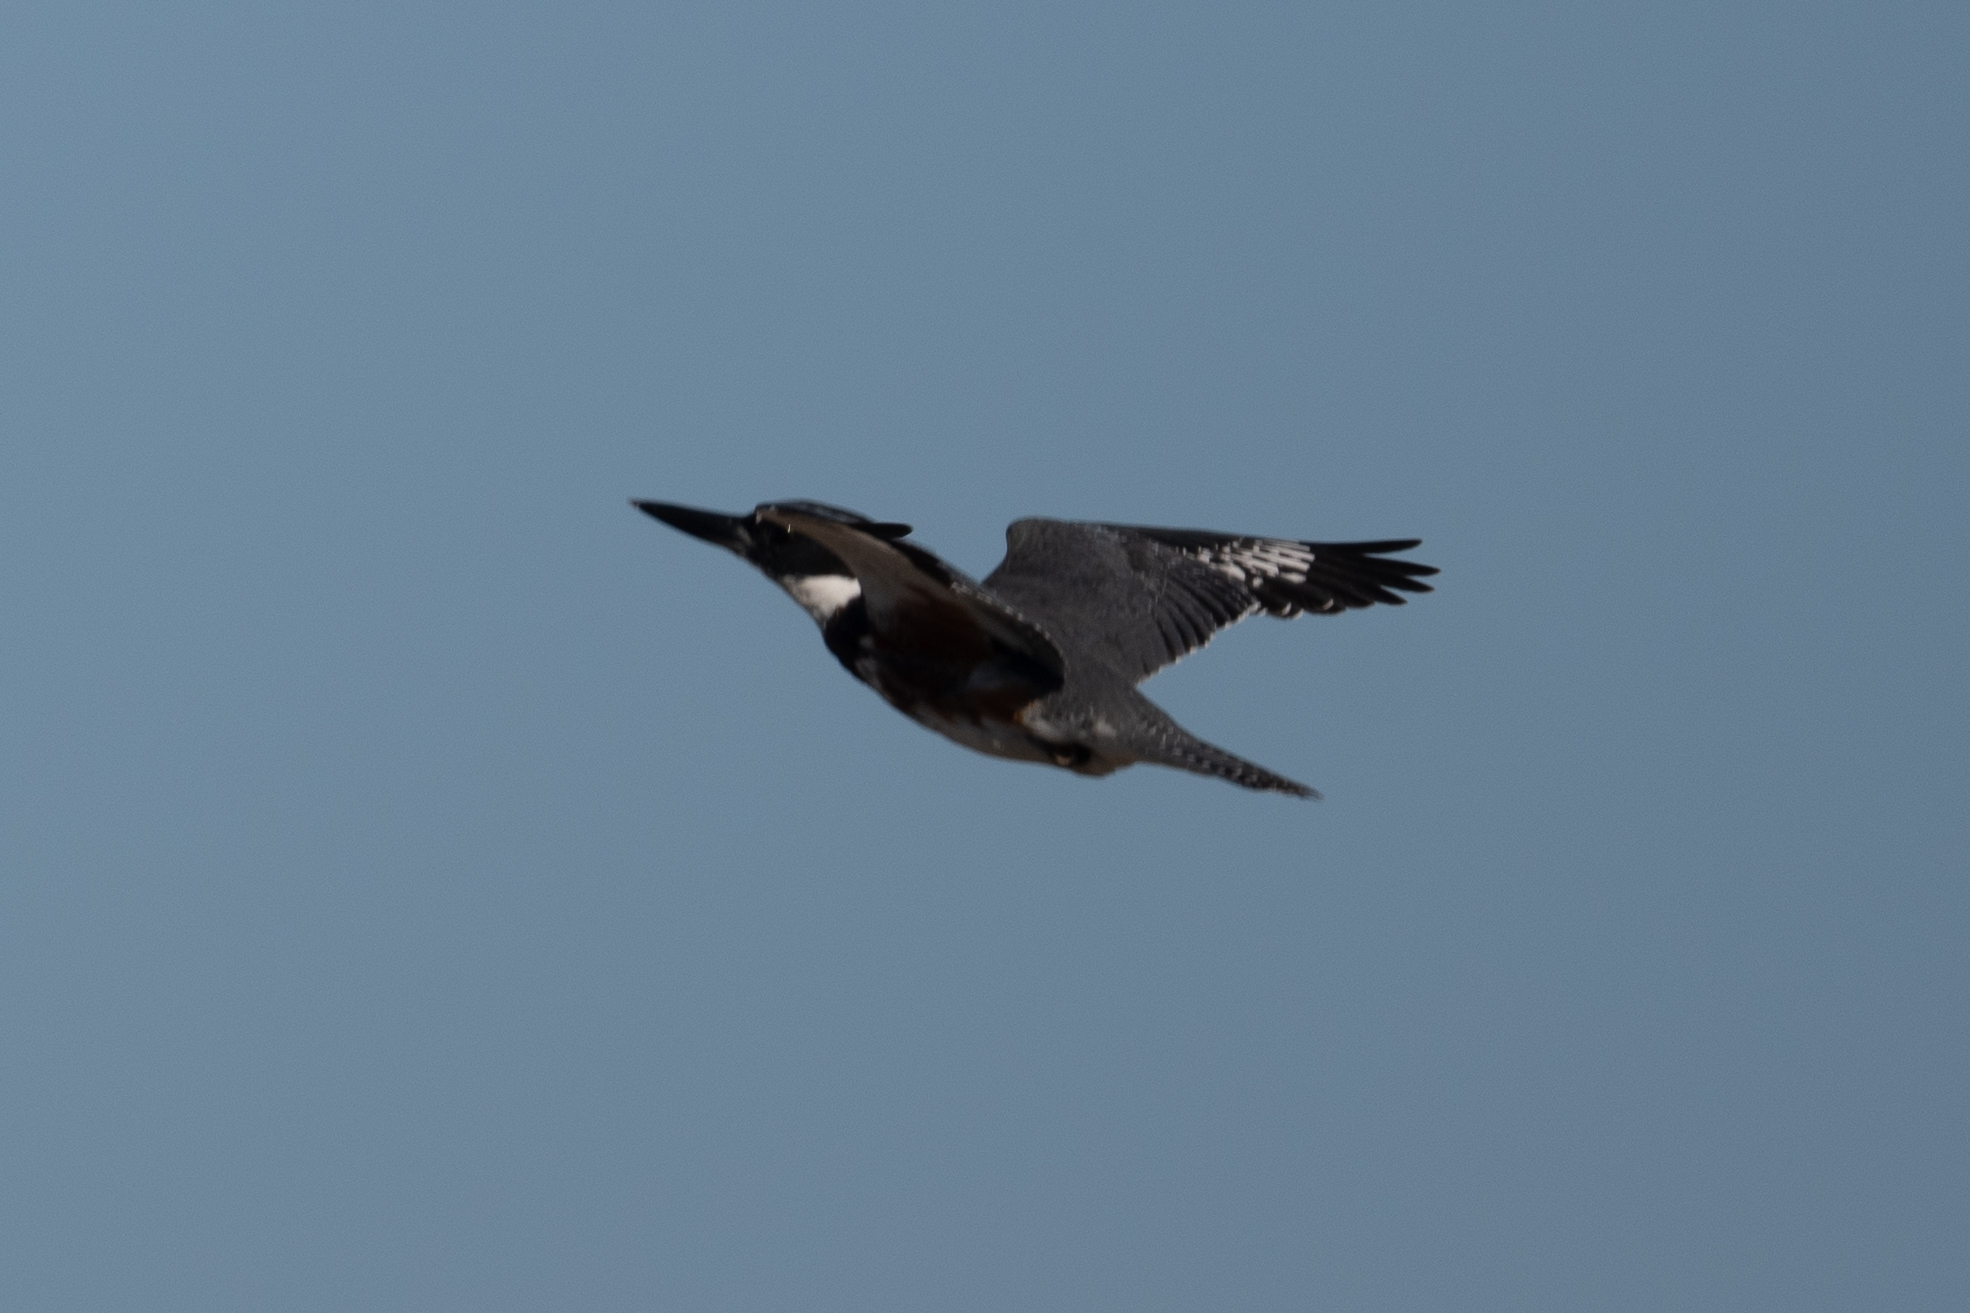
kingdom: Animalia
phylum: Chordata
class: Aves
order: Coraciiformes
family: Alcedinidae
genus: Megaceryle
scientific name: Megaceryle alcyon
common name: Belted kingfisher
